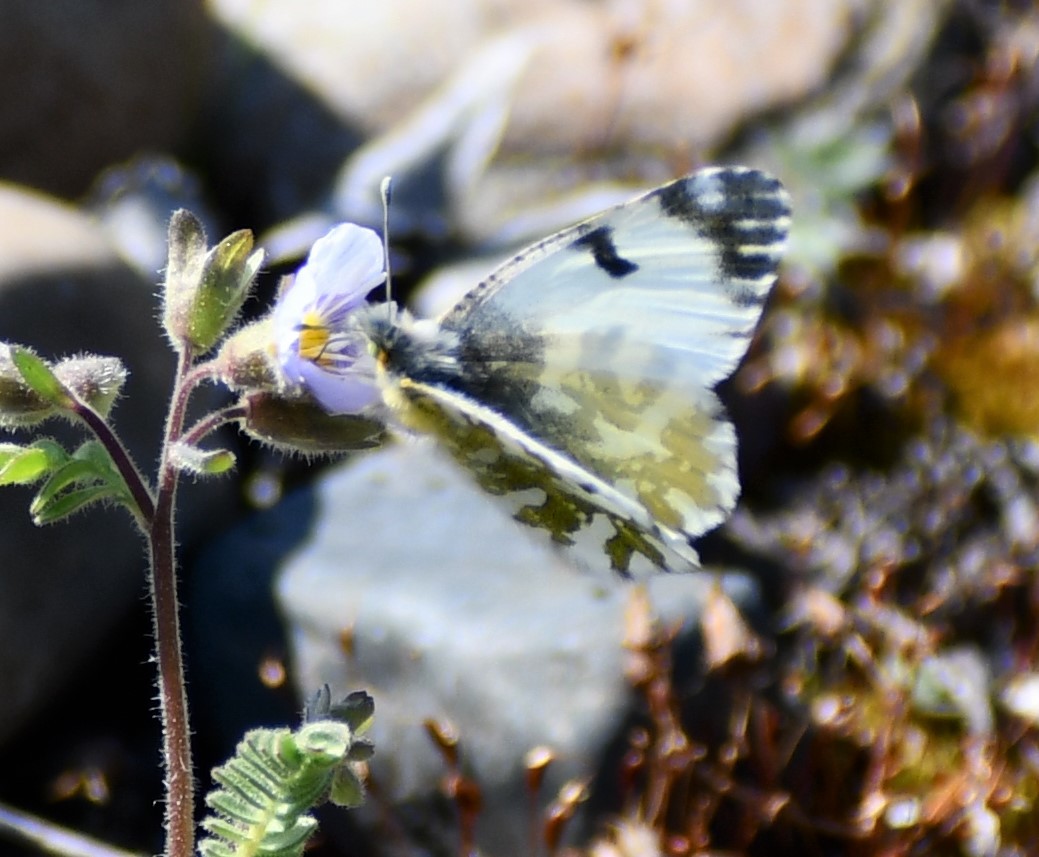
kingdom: Animalia
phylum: Arthropoda
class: Insecta
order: Lepidoptera
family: Pieridae
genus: Euchloe
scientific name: Euchloe ausonides
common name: Creamy marblewing
